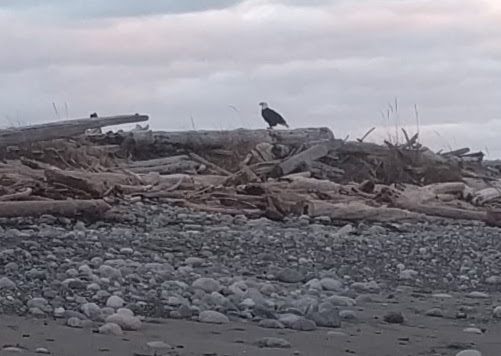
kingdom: Animalia
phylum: Chordata
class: Aves
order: Accipitriformes
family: Accipitridae
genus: Haliaeetus
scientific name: Haliaeetus leucocephalus
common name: Bald eagle
